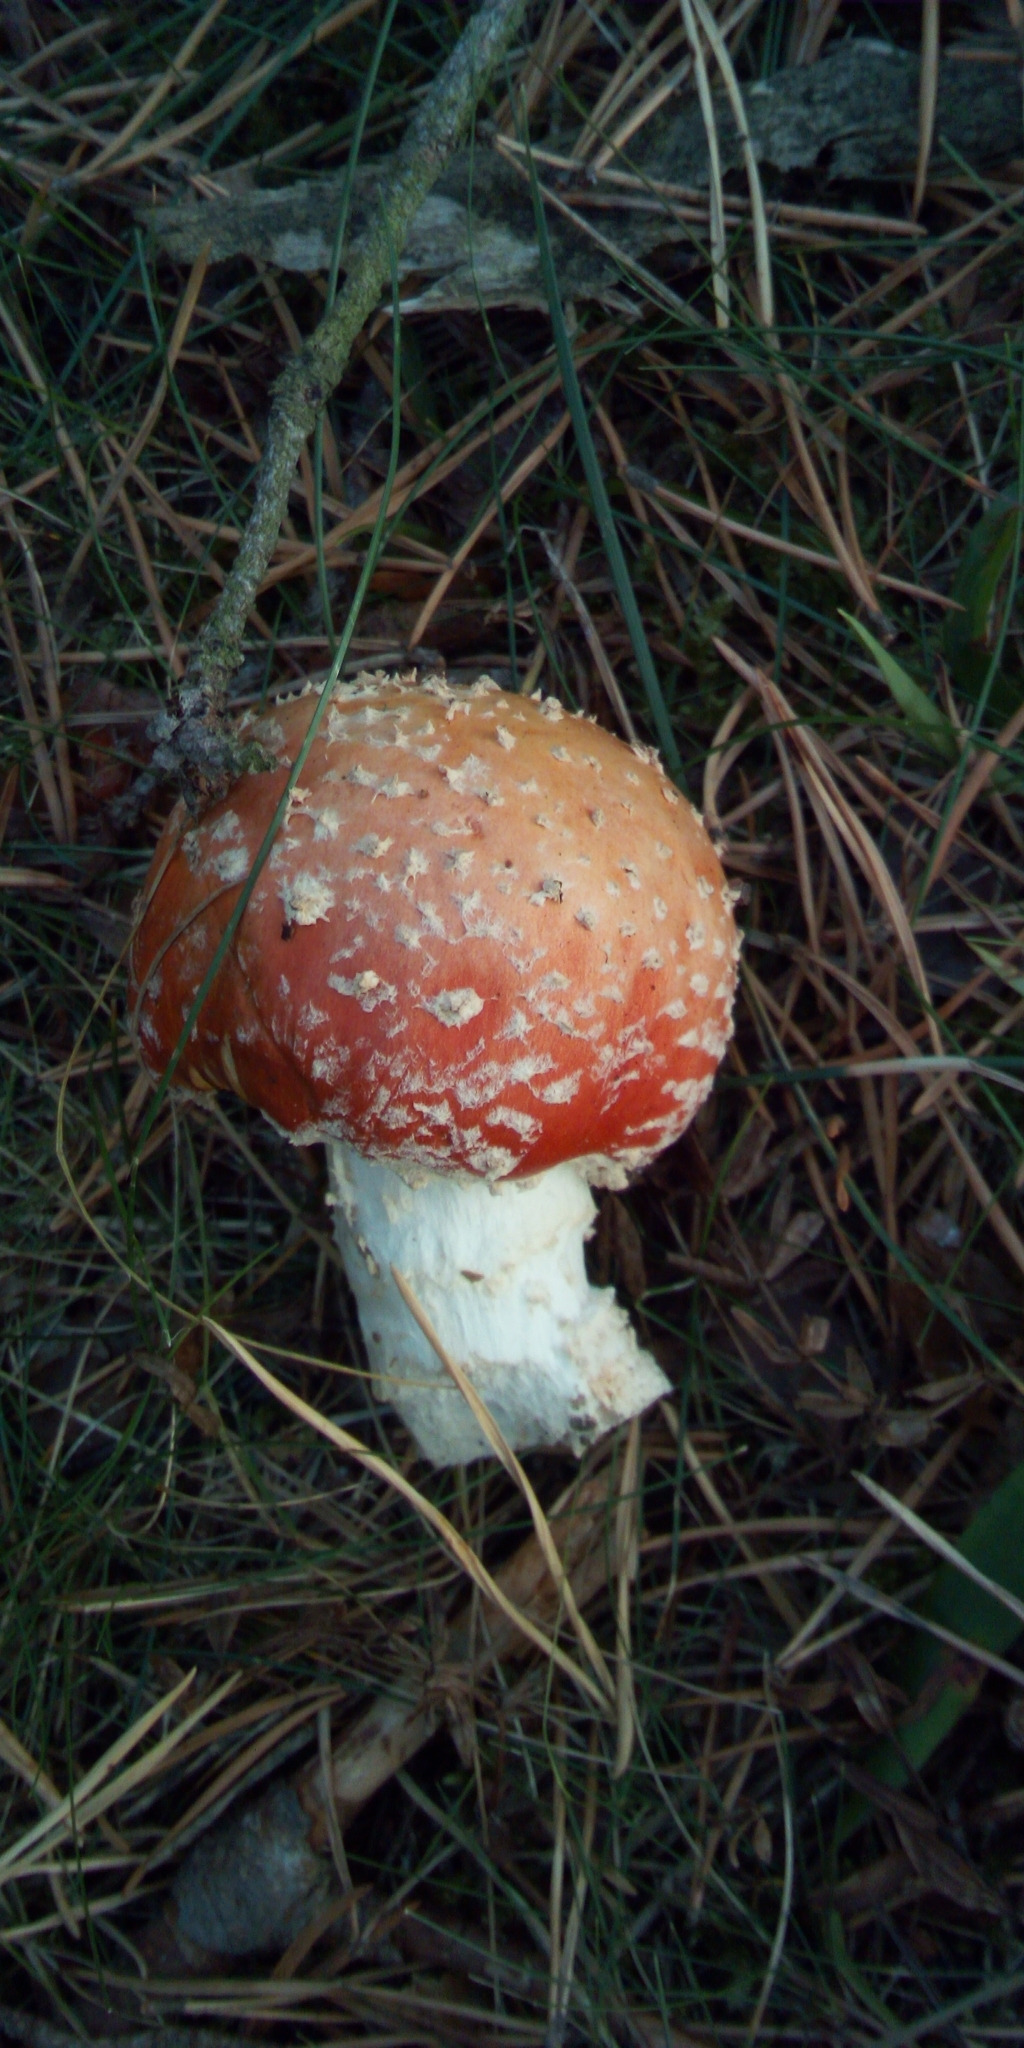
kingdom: Fungi
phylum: Basidiomycota
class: Agaricomycetes
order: Agaricales
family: Amanitaceae
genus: Amanita
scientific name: Amanita muscaria
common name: Fly agaric
